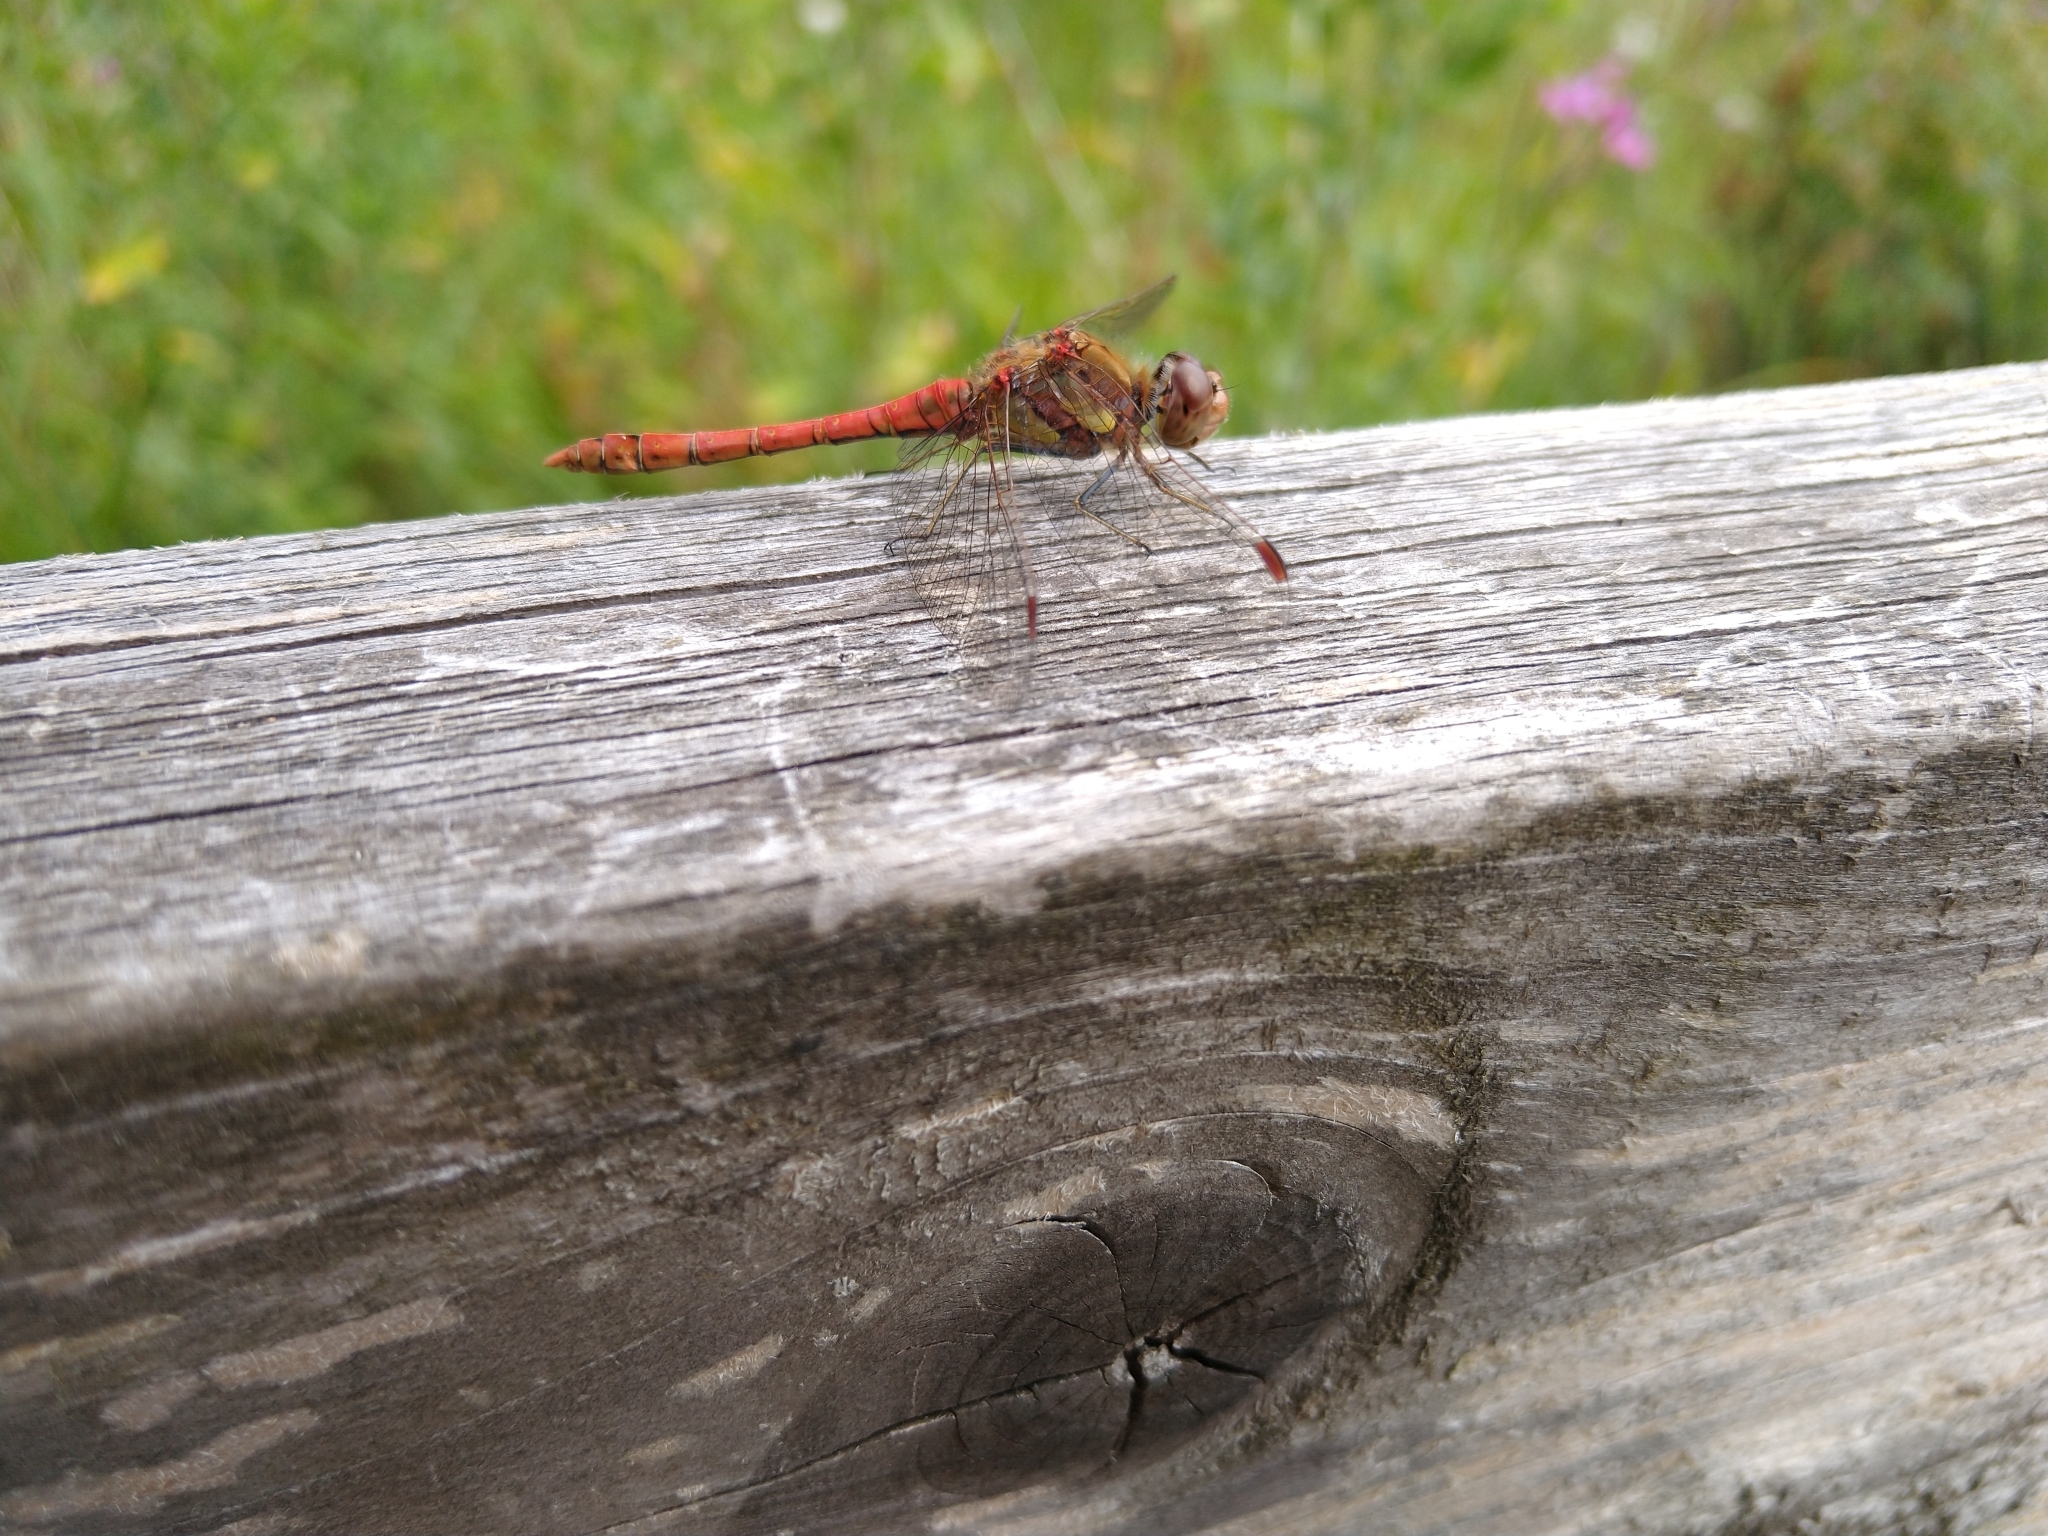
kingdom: Animalia
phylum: Arthropoda
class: Insecta
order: Odonata
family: Libellulidae
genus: Sympetrum
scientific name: Sympetrum striolatum
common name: Common darter
